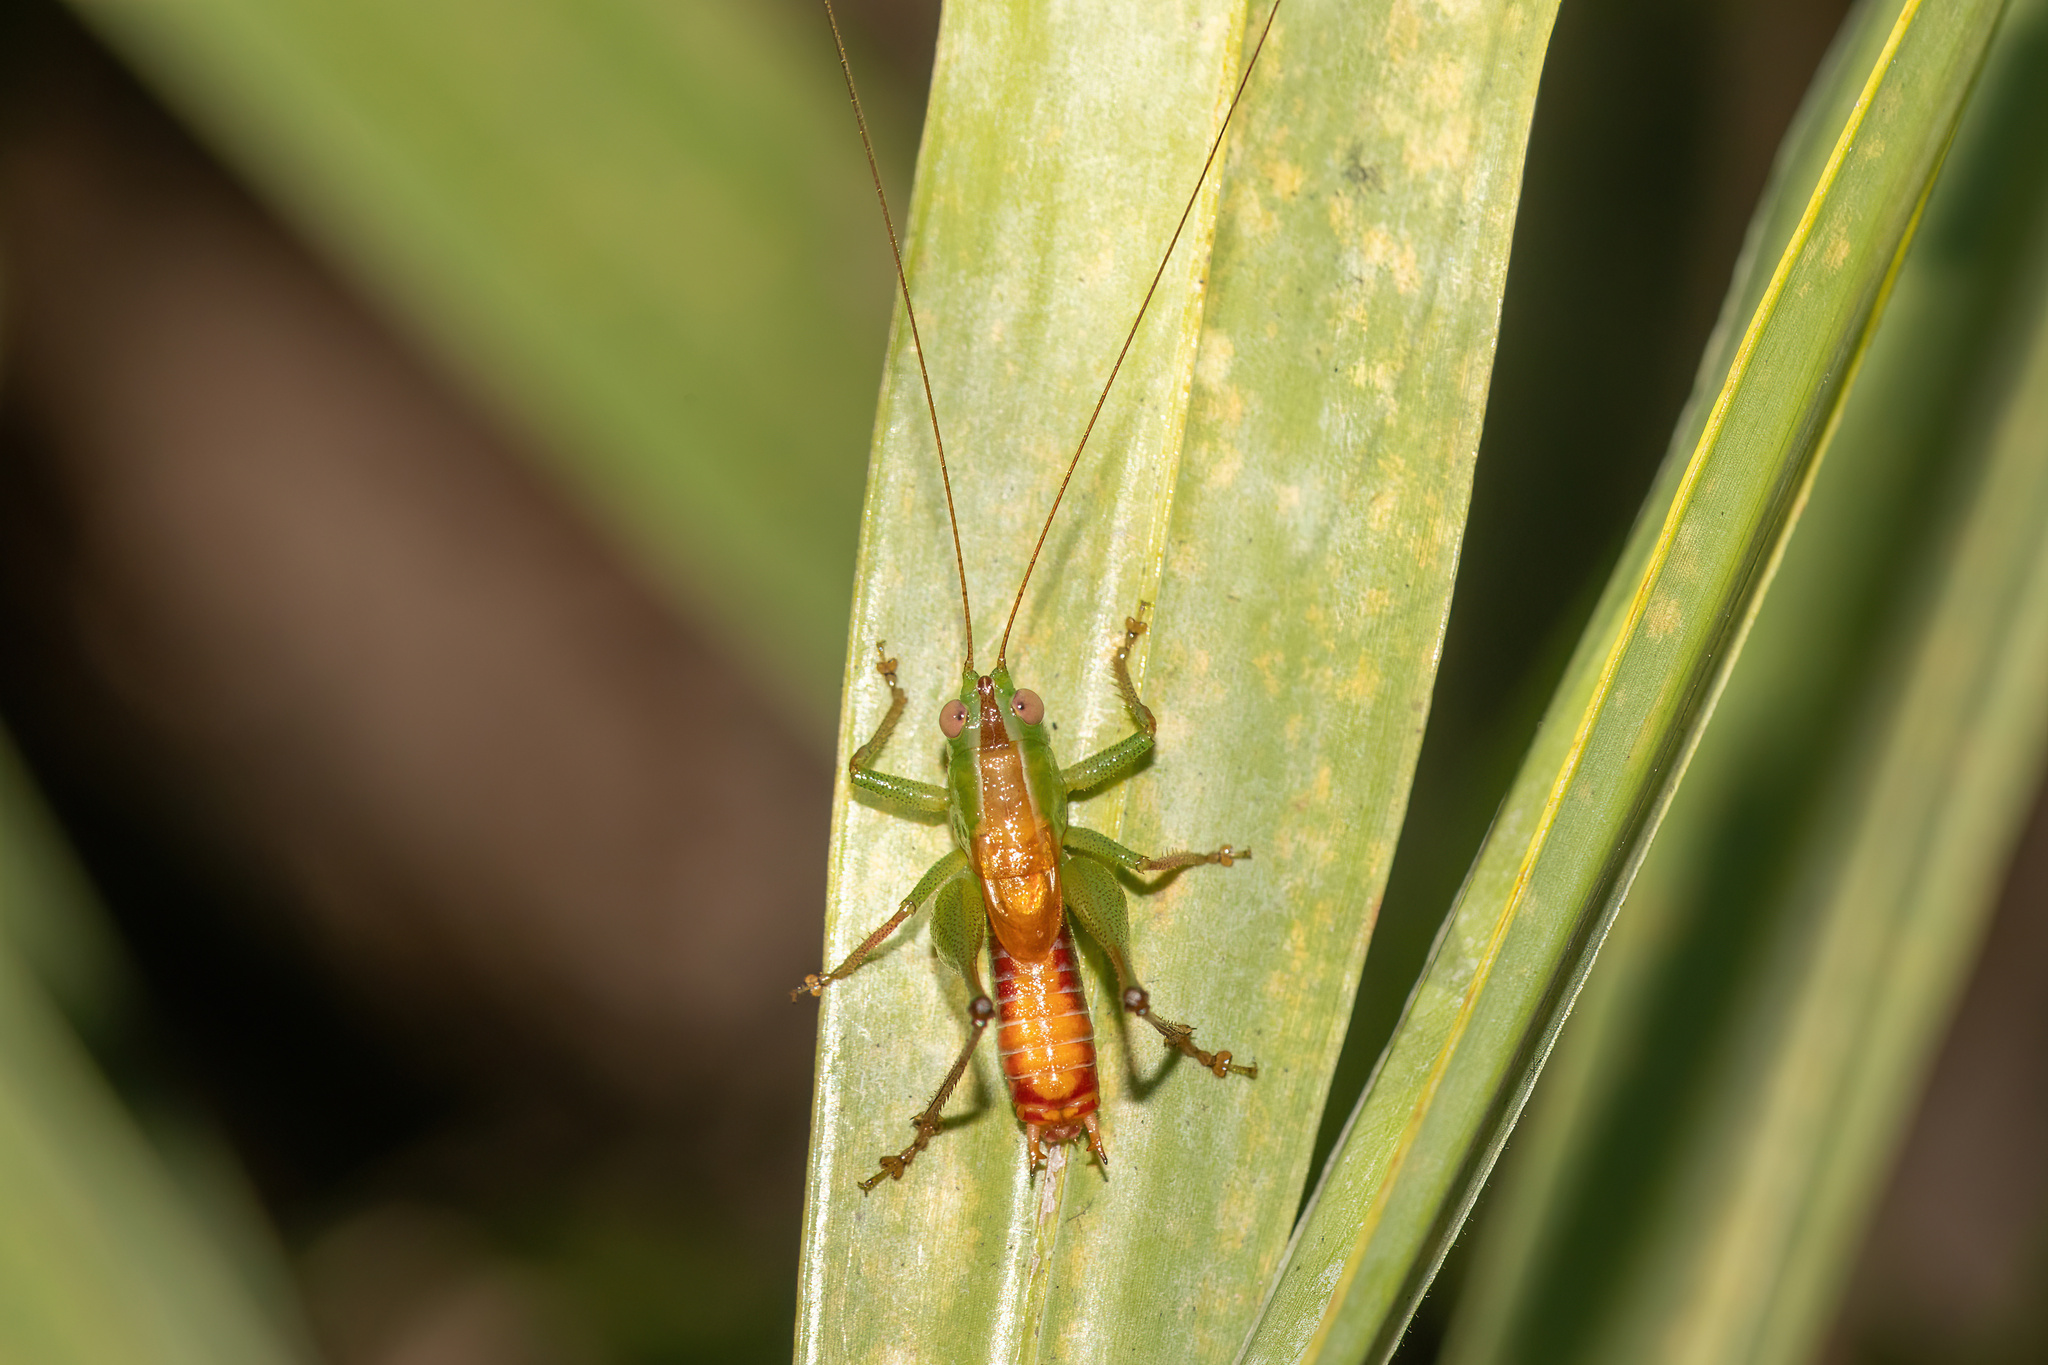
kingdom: Animalia
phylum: Arthropoda
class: Insecta
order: Orthoptera
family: Tettigoniidae
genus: Odontoxiphidium
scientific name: Odontoxiphidium apterum
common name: Wingless meadow katydid
